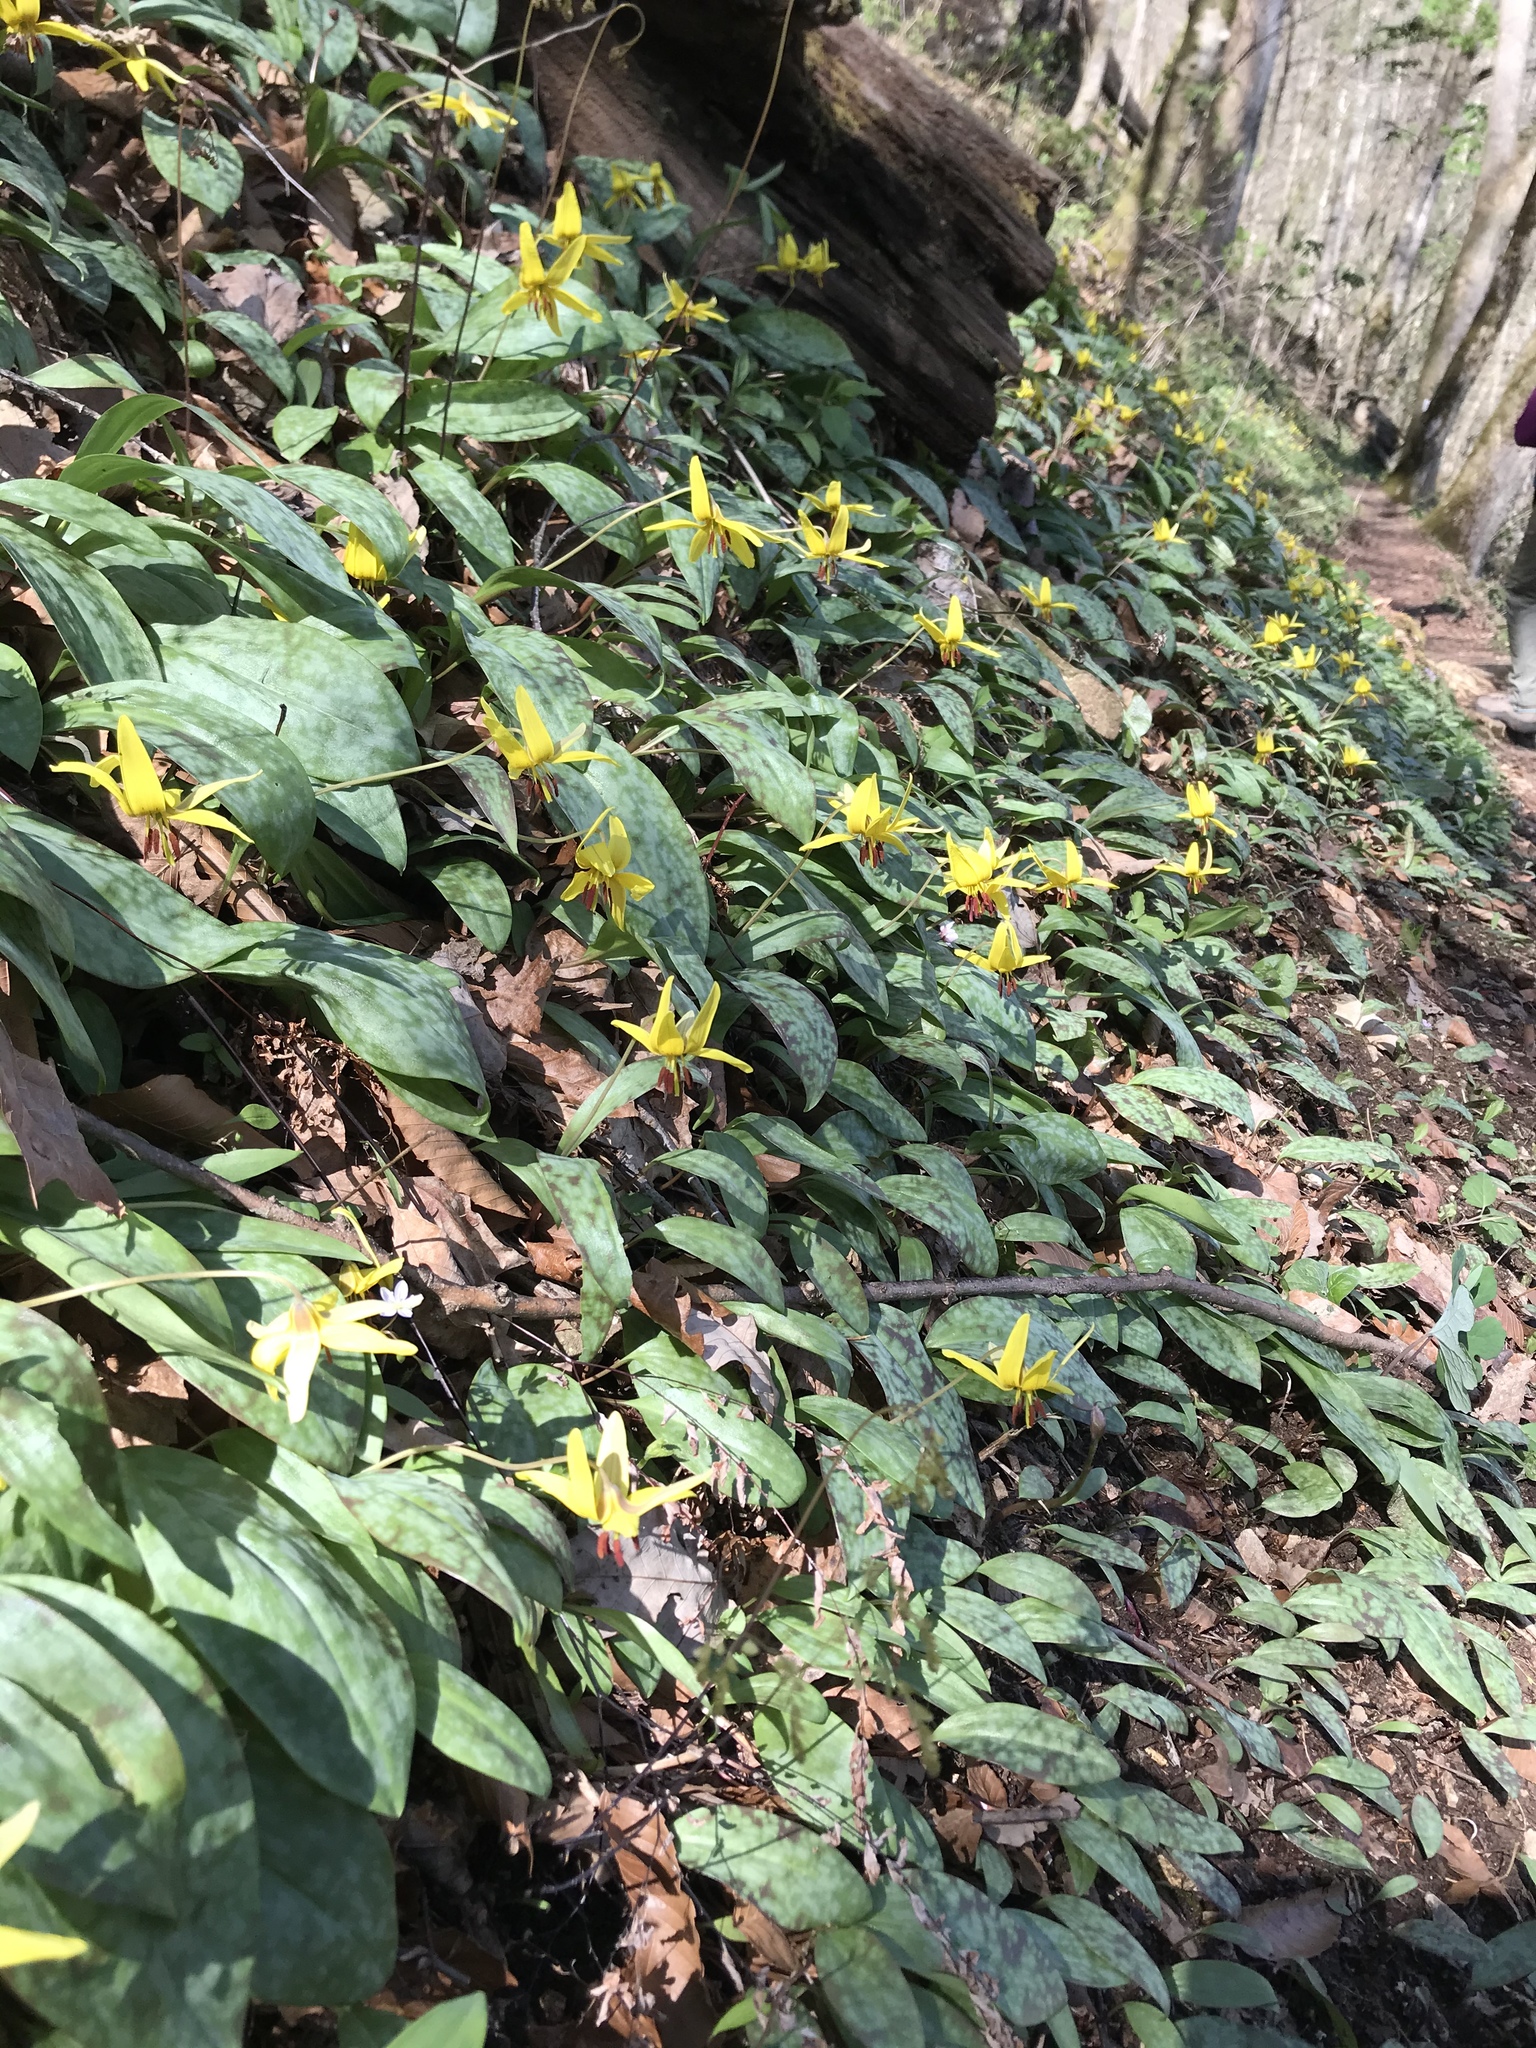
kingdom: Plantae
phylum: Tracheophyta
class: Liliopsida
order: Liliales
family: Liliaceae
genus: Erythronium
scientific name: Erythronium americanum
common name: Yellow adder's-tongue
